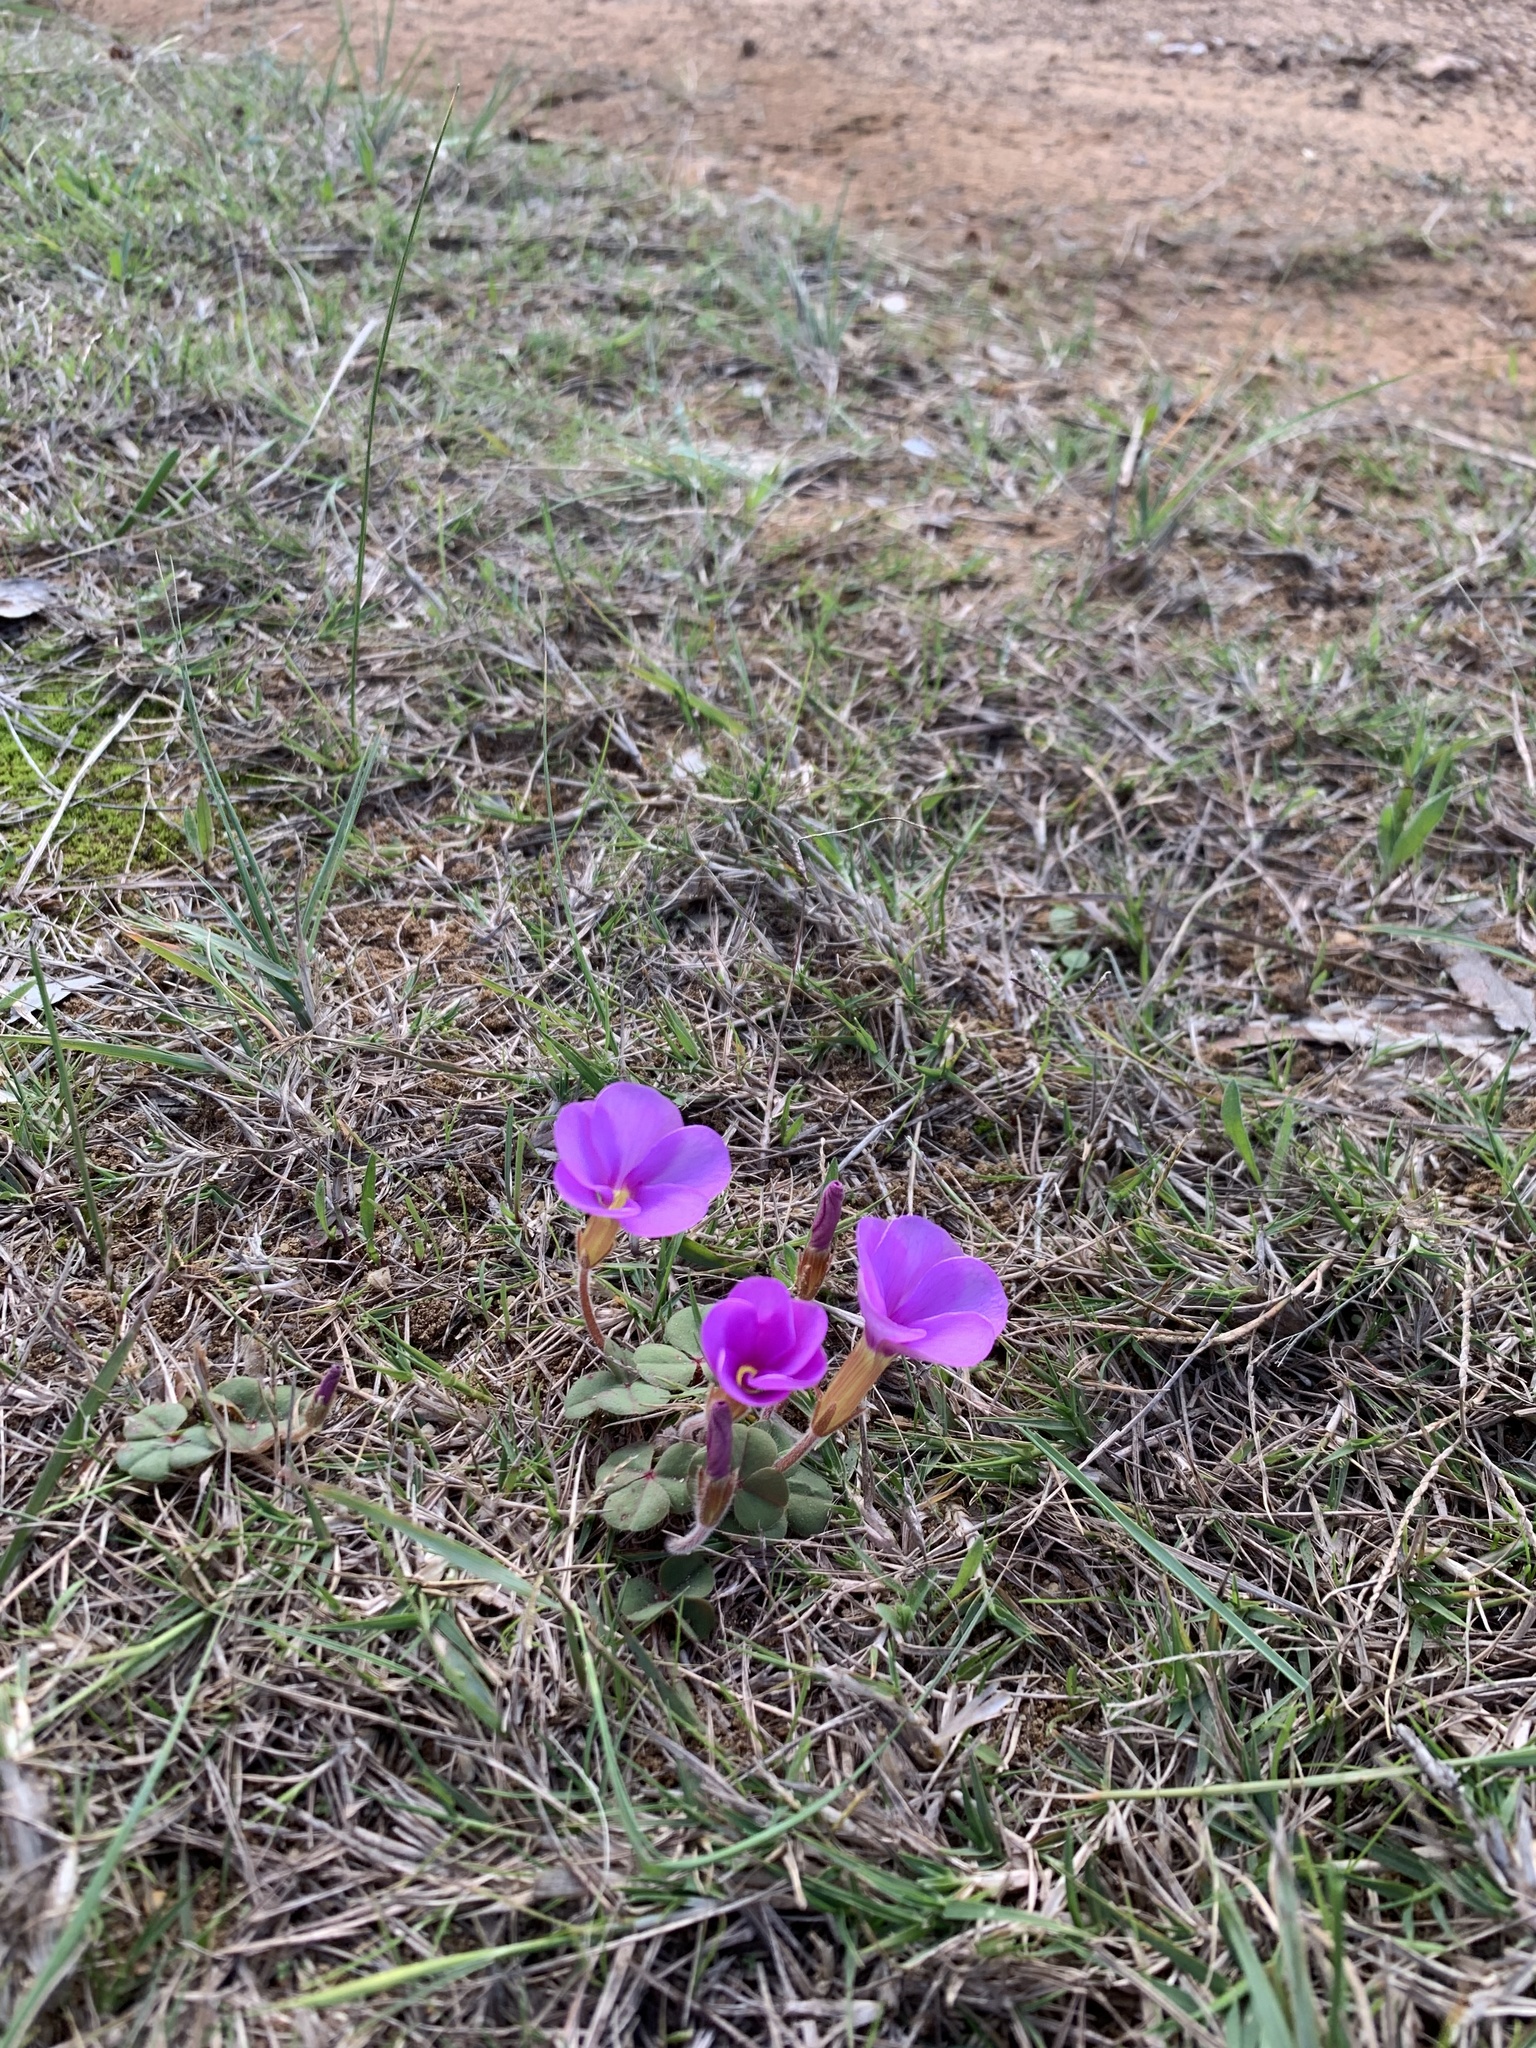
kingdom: Plantae
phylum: Tracheophyta
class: Magnoliopsida
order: Oxalidales
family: Oxalidaceae
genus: Oxalis
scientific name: Oxalis eckloniana
